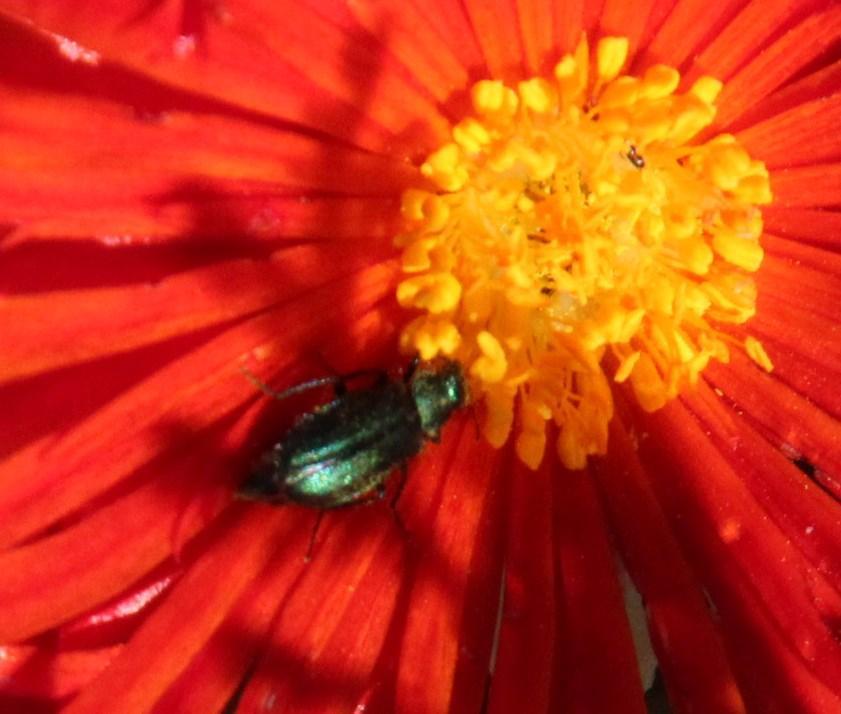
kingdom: Plantae
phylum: Tracheophyta
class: Magnoliopsida
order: Caryophyllales
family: Aizoaceae
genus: Malephora
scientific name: Malephora purpureocrocea
